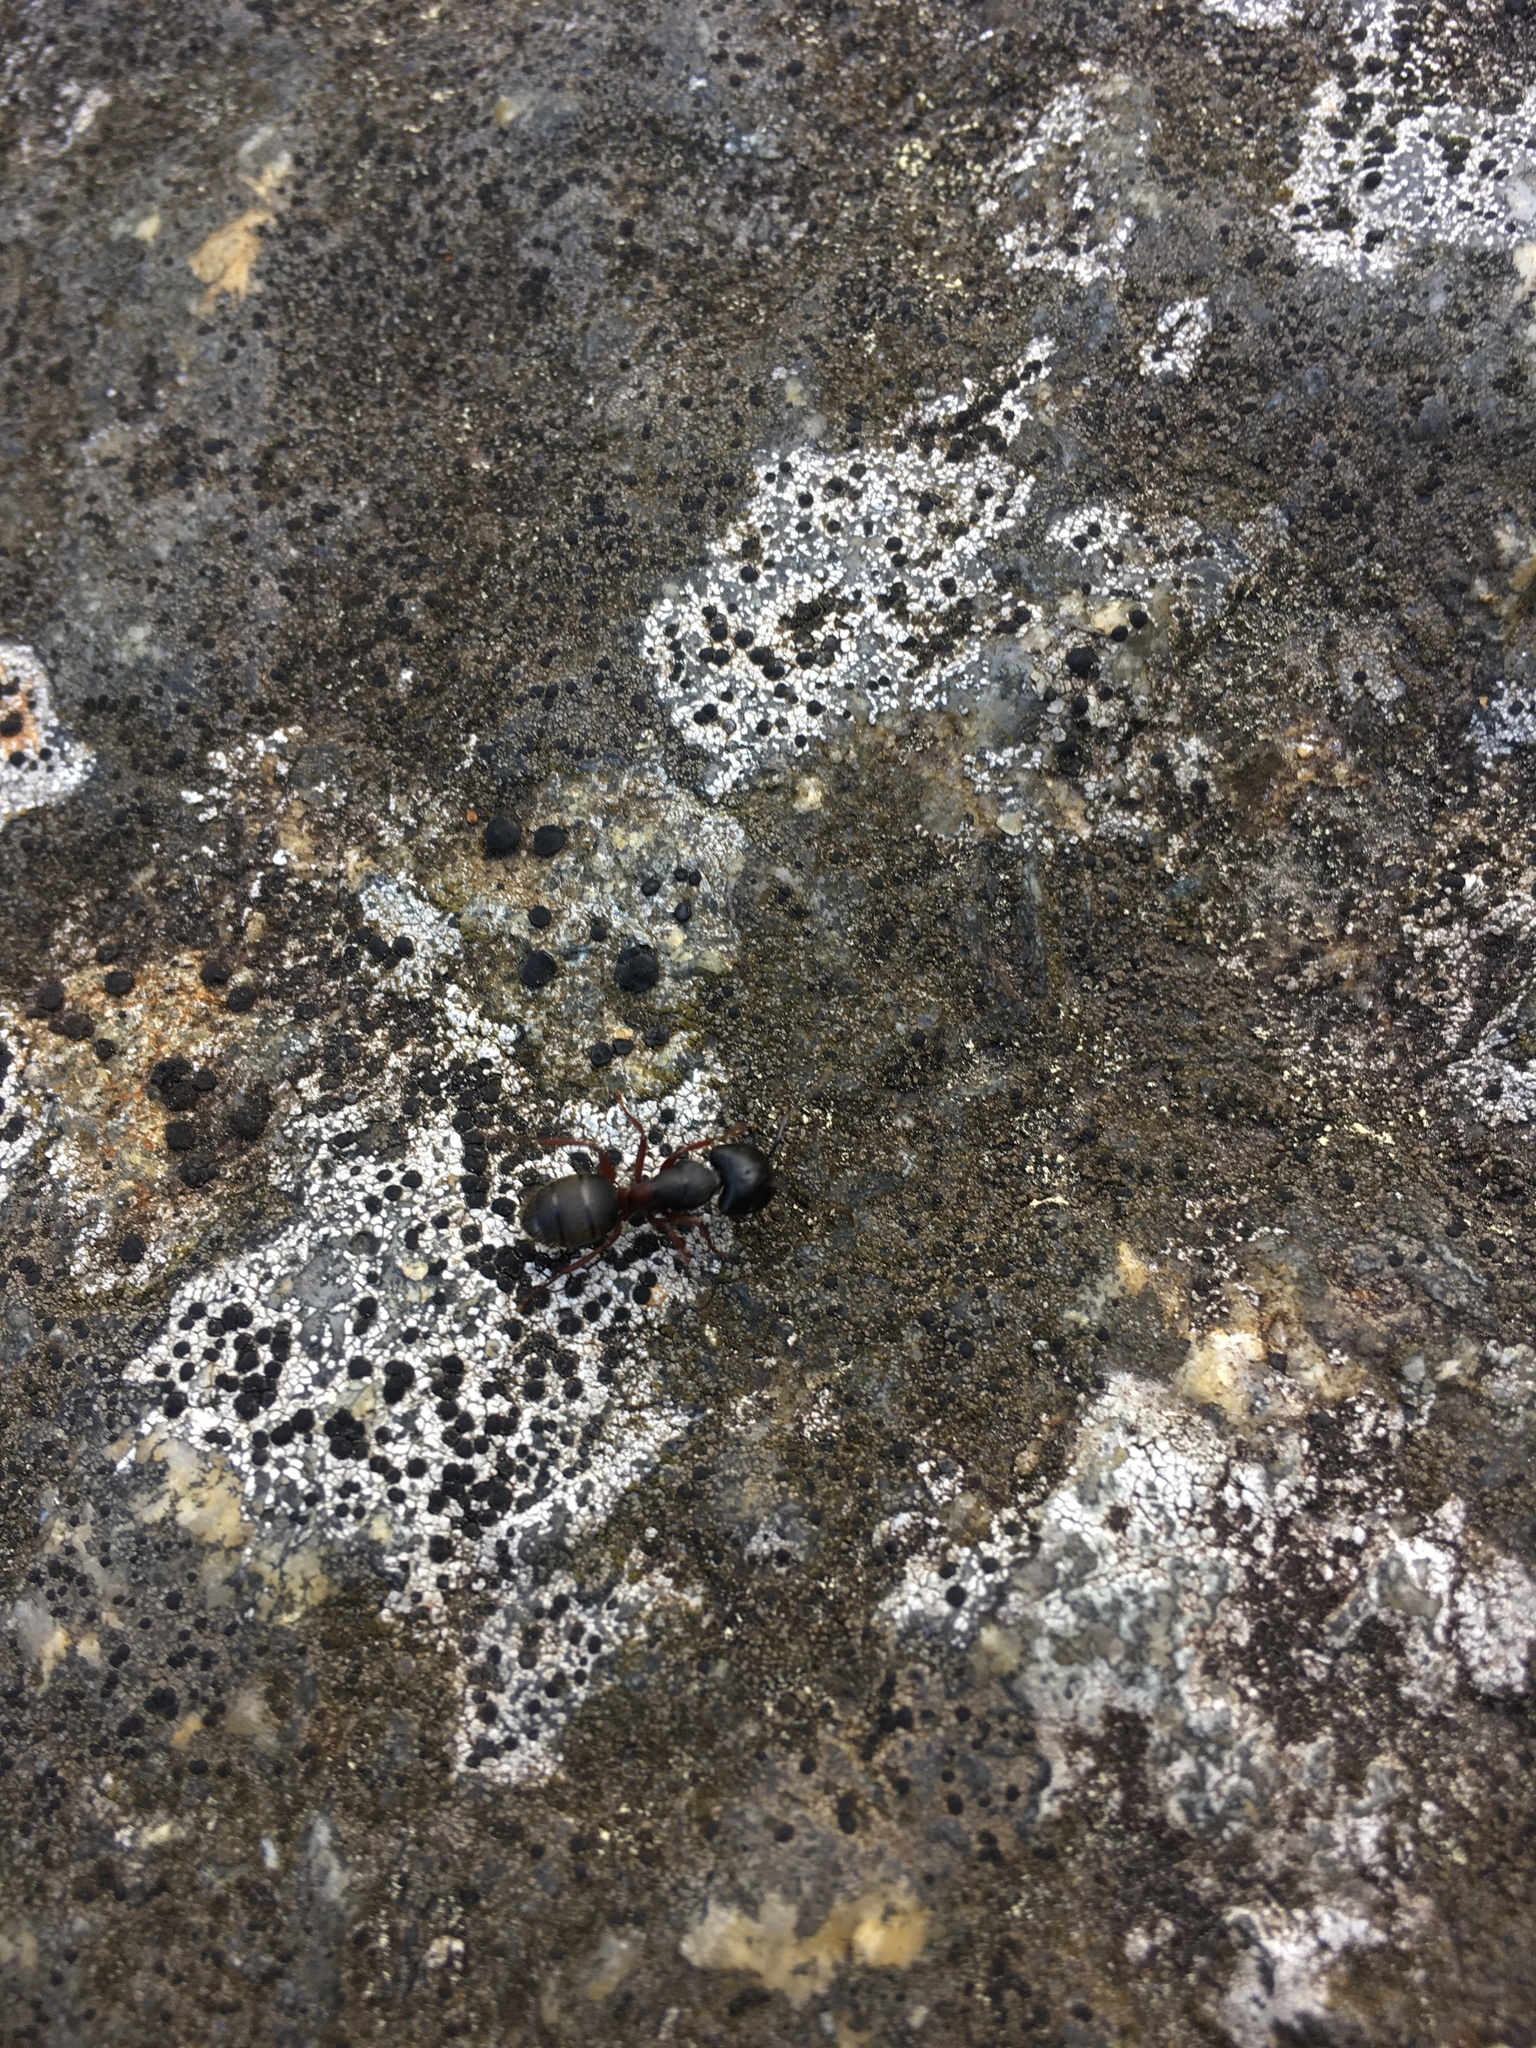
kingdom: Animalia
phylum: Arthropoda
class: Insecta
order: Hymenoptera
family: Formicidae
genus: Camponotus
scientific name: Camponotus herculeanus
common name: Hercules ant
